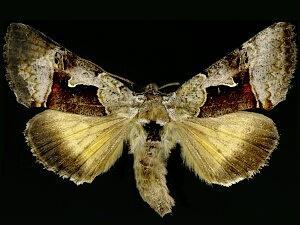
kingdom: Animalia
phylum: Arthropoda
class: Insecta
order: Lepidoptera
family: Noctuidae
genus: Syngrapha
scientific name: Syngrapha diasema
